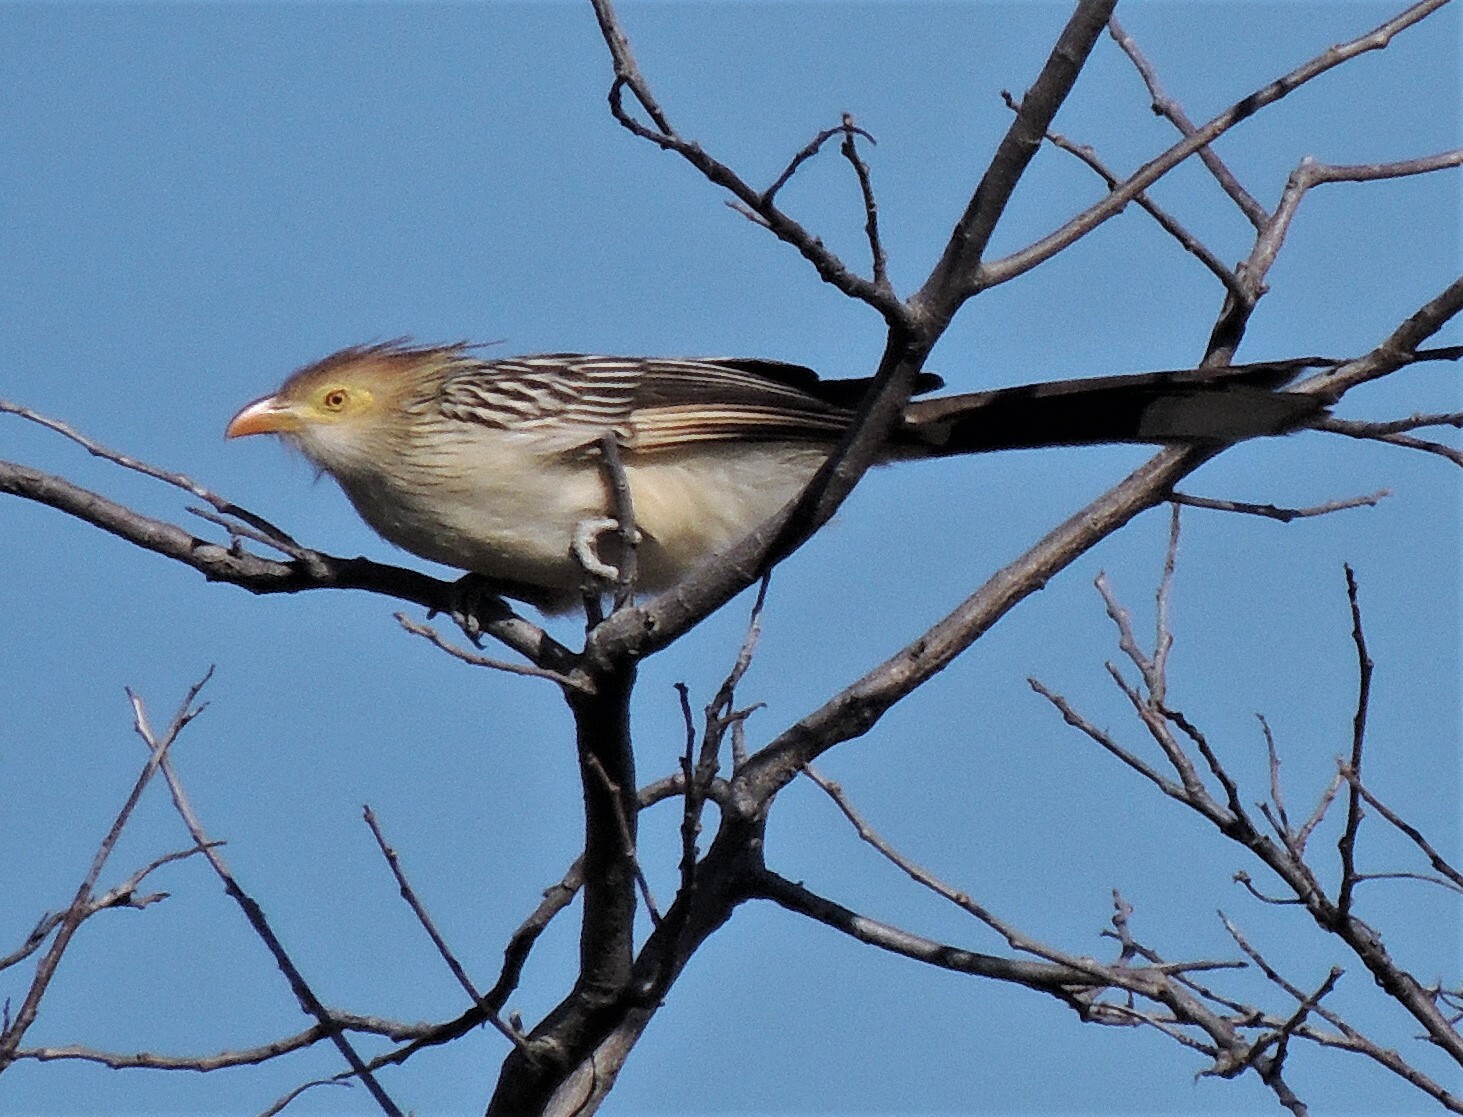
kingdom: Animalia
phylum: Chordata
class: Aves
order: Cuculiformes
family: Cuculidae
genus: Guira
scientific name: Guira guira
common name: Guira cuckoo
